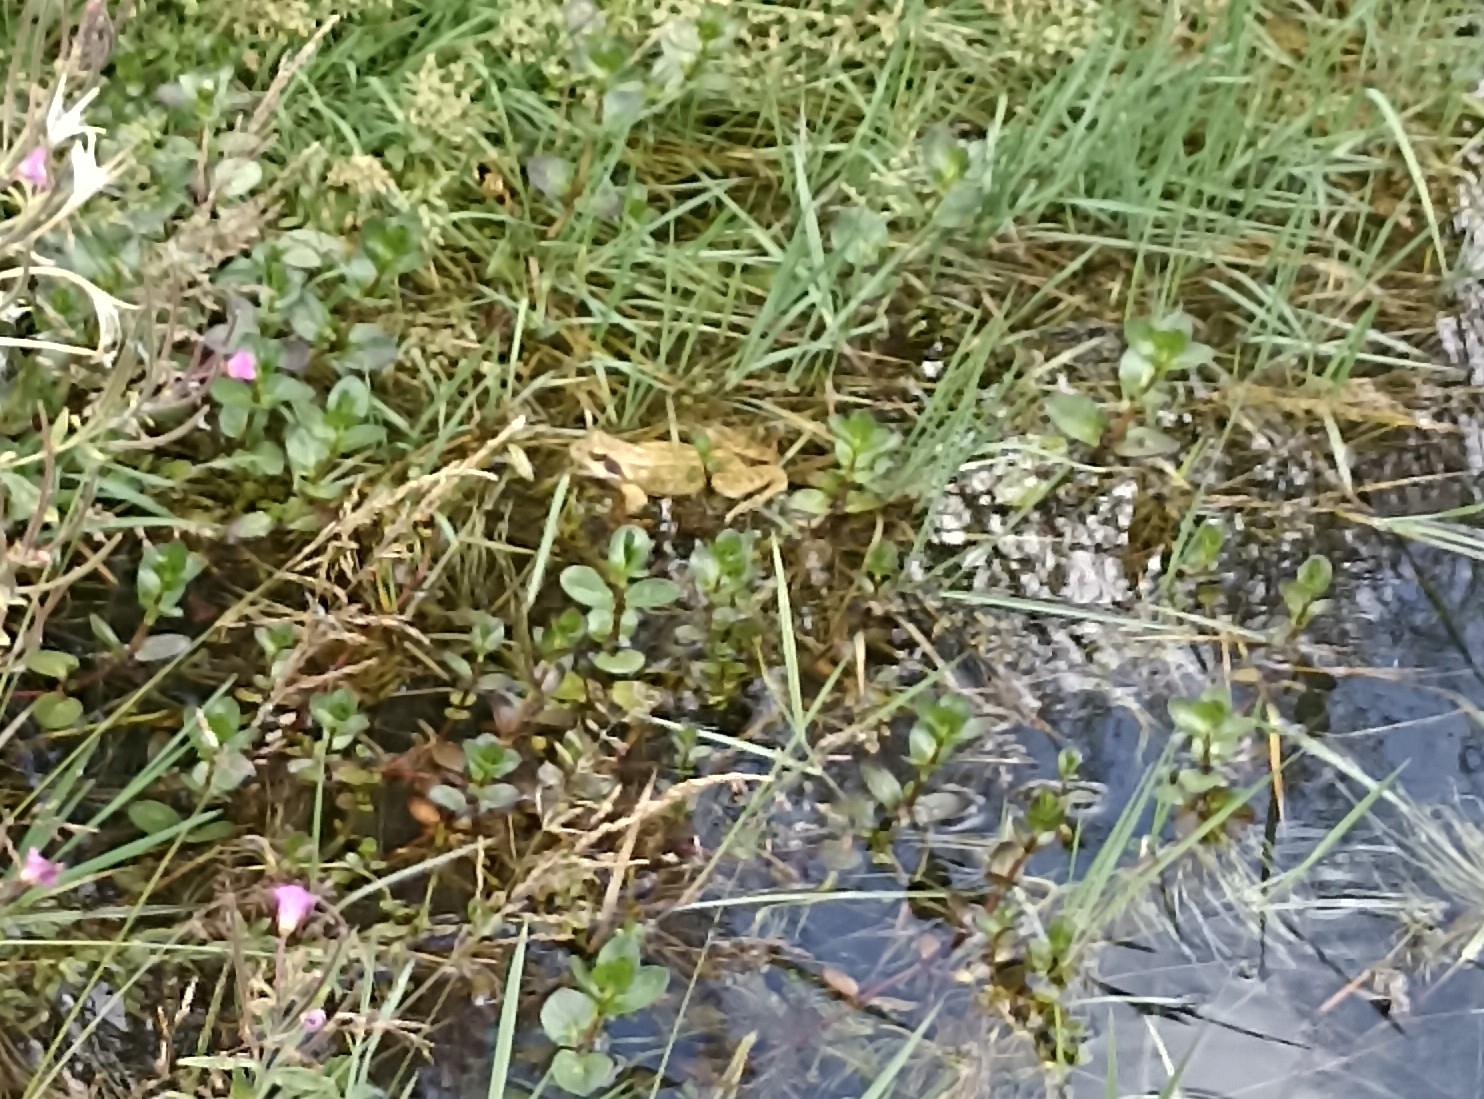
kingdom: Animalia
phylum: Chordata
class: Amphibia
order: Anura
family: Ranidae
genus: Rana
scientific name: Rana temporaria
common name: Common frog
